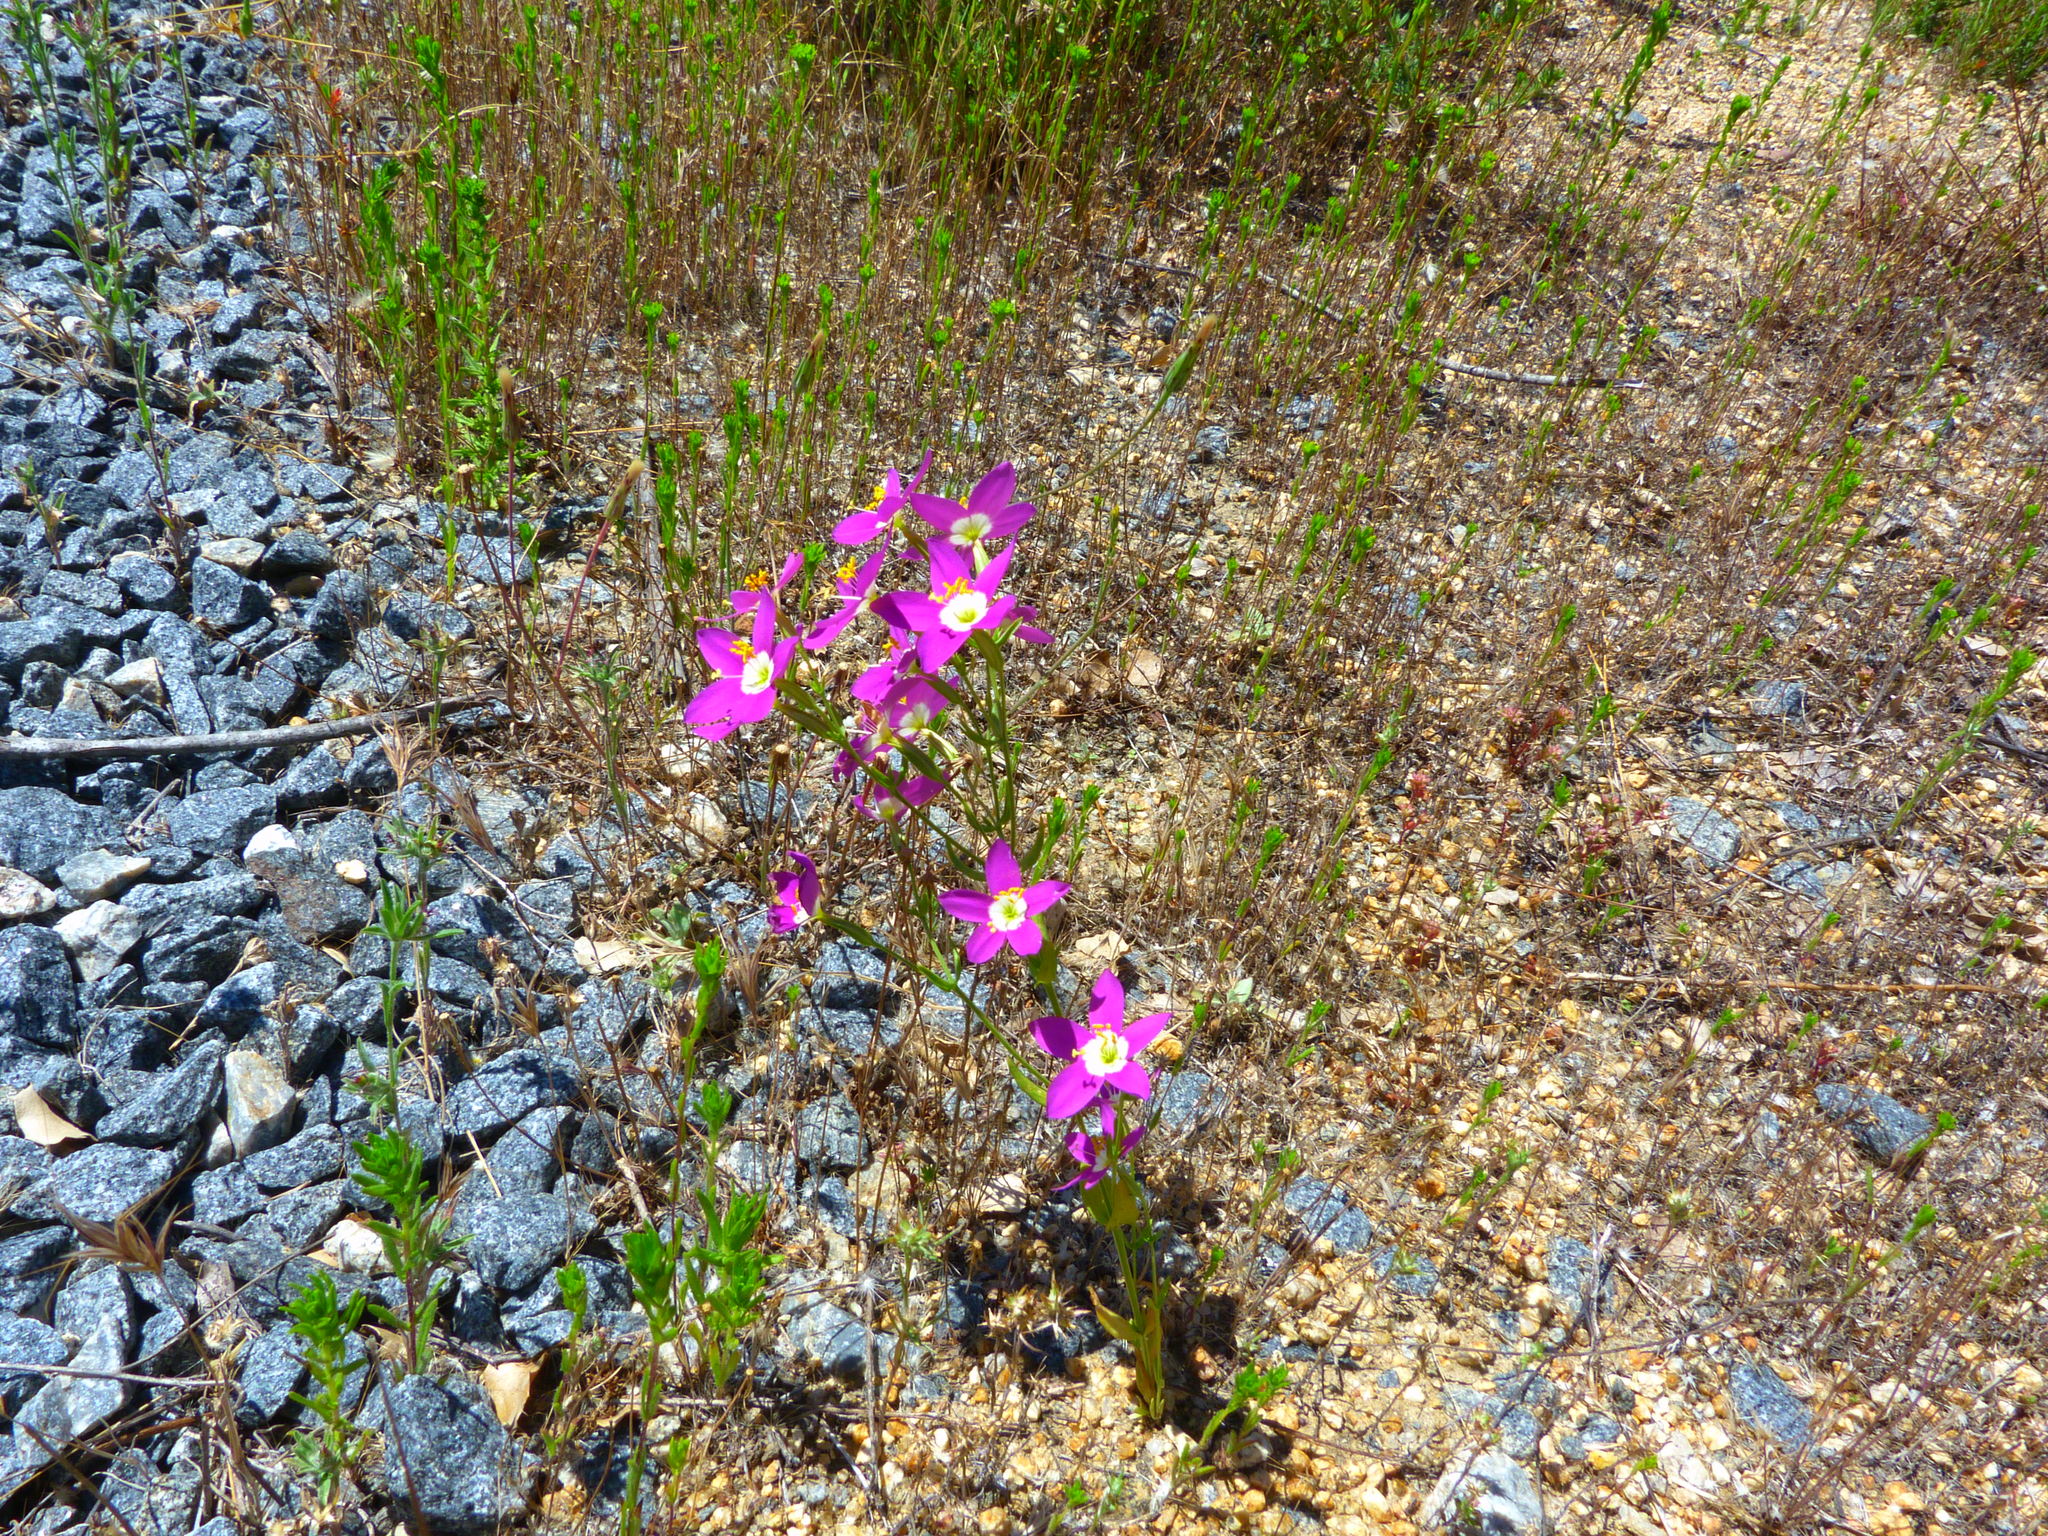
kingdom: Plantae
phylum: Tracheophyta
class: Magnoliopsida
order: Gentianales
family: Gentianaceae
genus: Zeltnera
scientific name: Zeltnera venusta
